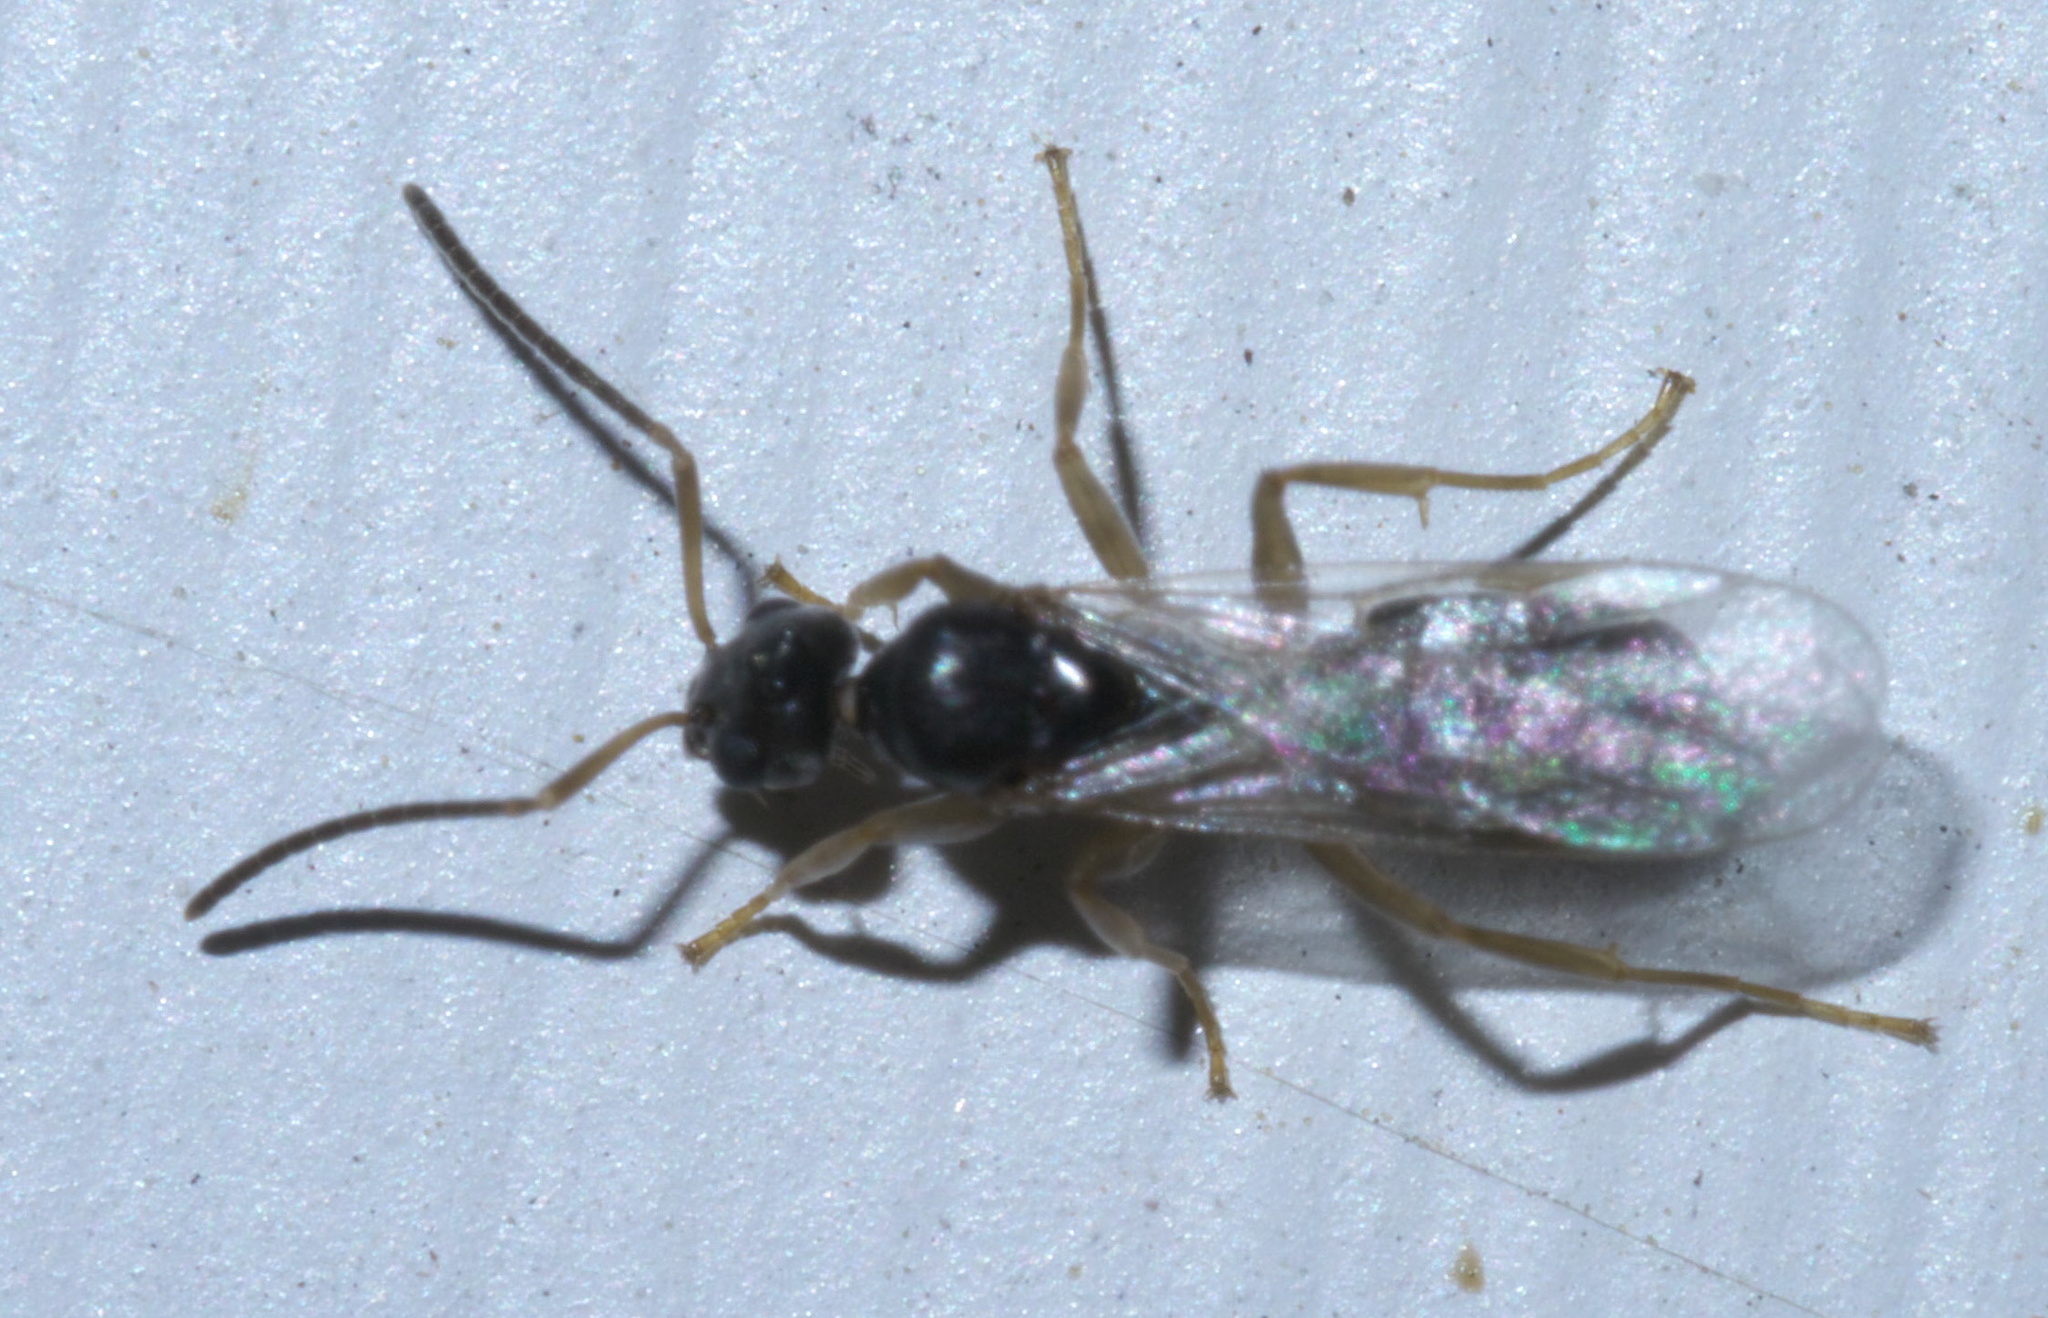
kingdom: Animalia
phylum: Arthropoda
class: Insecta
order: Hymenoptera
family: Formicidae
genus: Tapinoma
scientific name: Tapinoma sessile
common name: Odorous house ant
